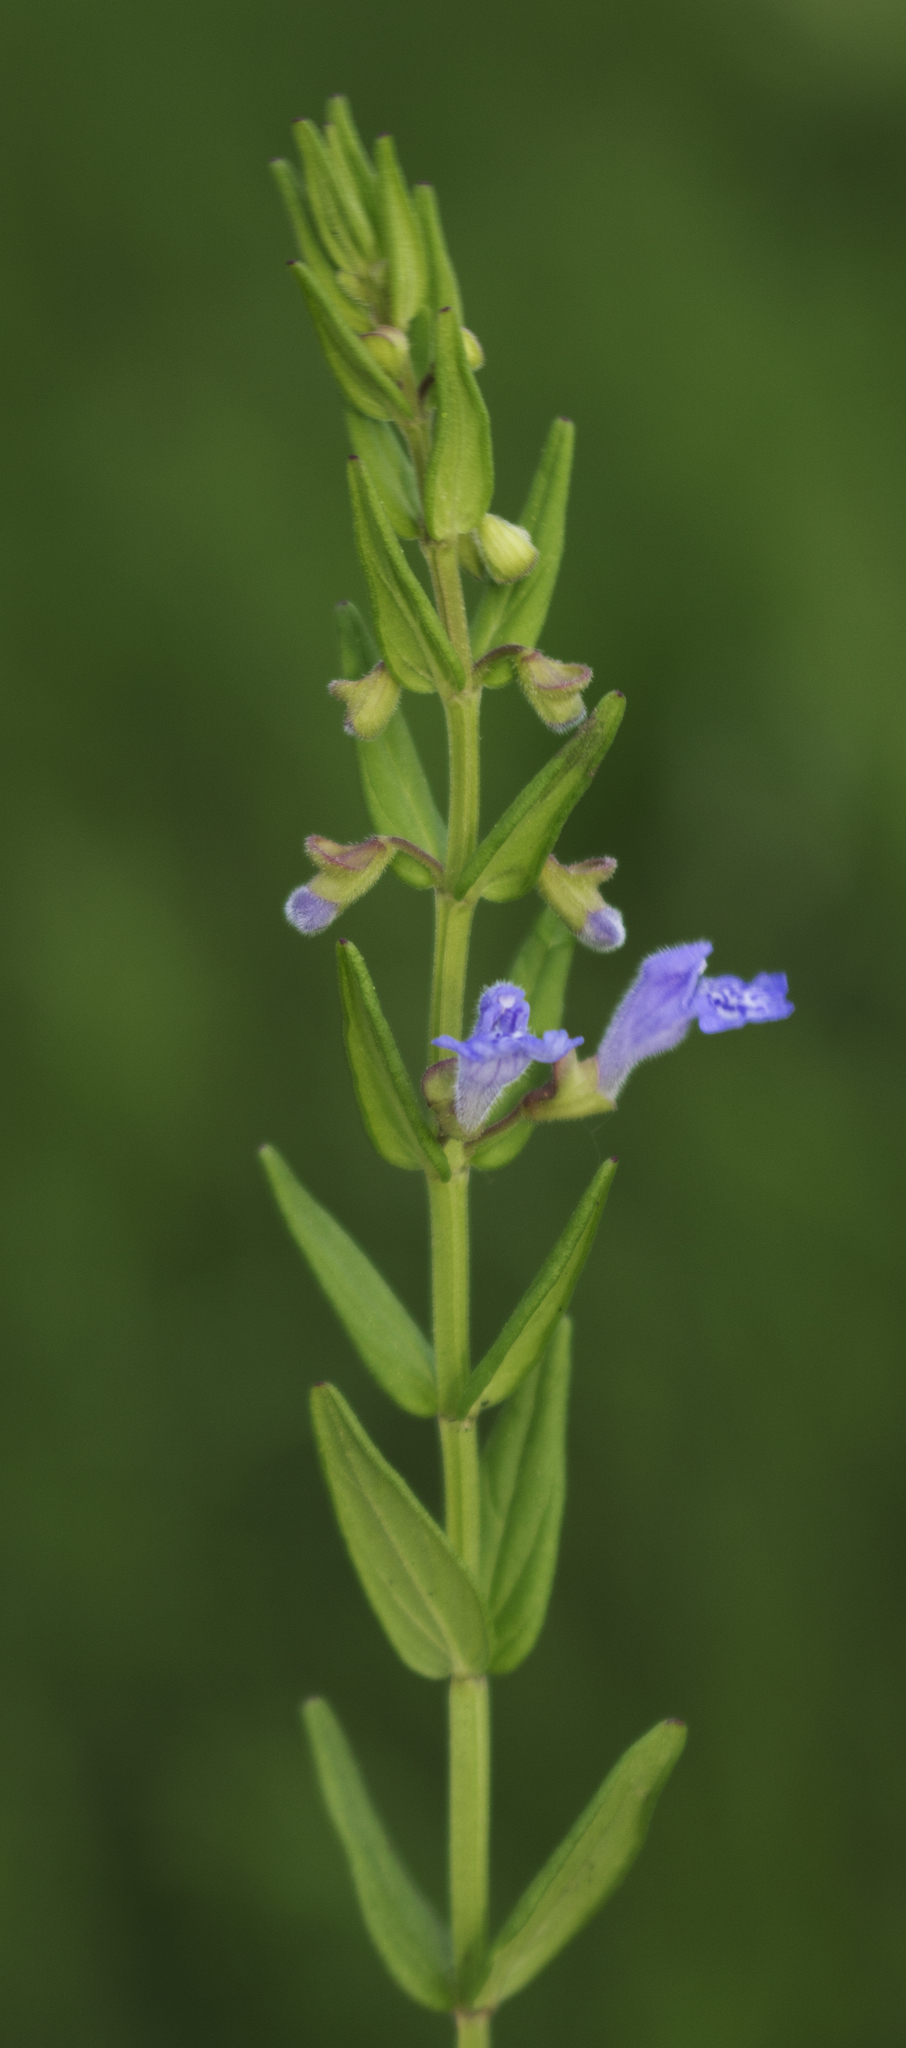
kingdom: Plantae
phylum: Tracheophyta
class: Magnoliopsida
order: Lamiales
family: Lamiaceae
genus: Scutellaria
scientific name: Scutellaria parvula
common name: Little scullcap
